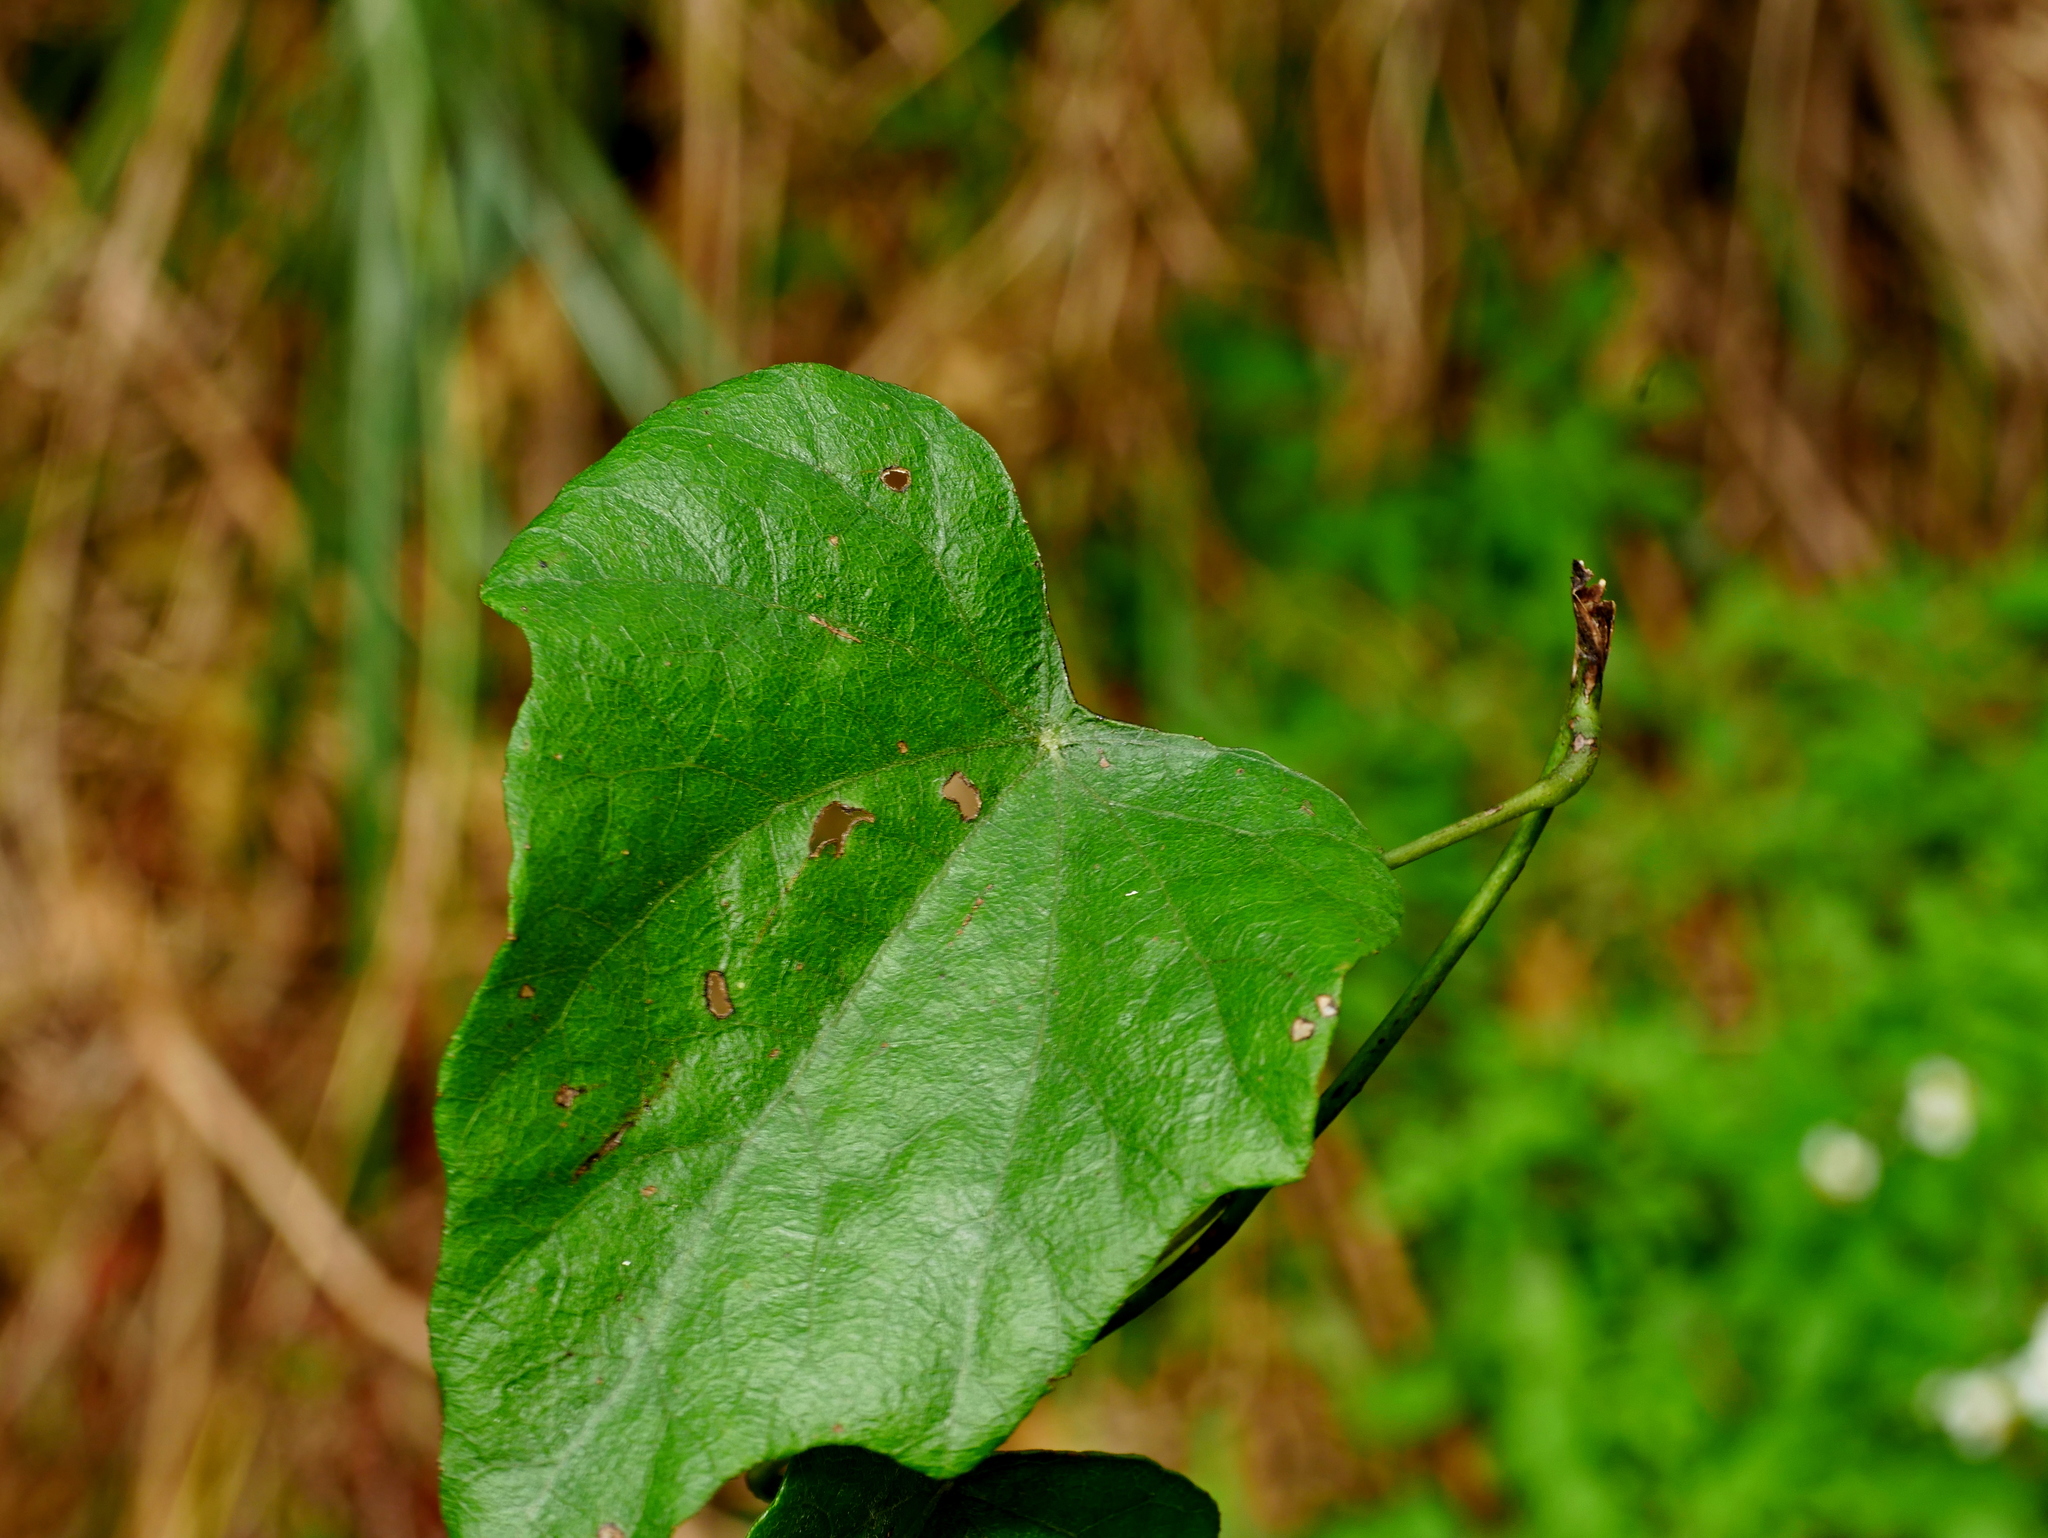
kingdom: Plantae
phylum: Tracheophyta
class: Magnoliopsida
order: Ranunculales
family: Menispermaceae
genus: Cyclea
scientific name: Cyclea ochiaiana
